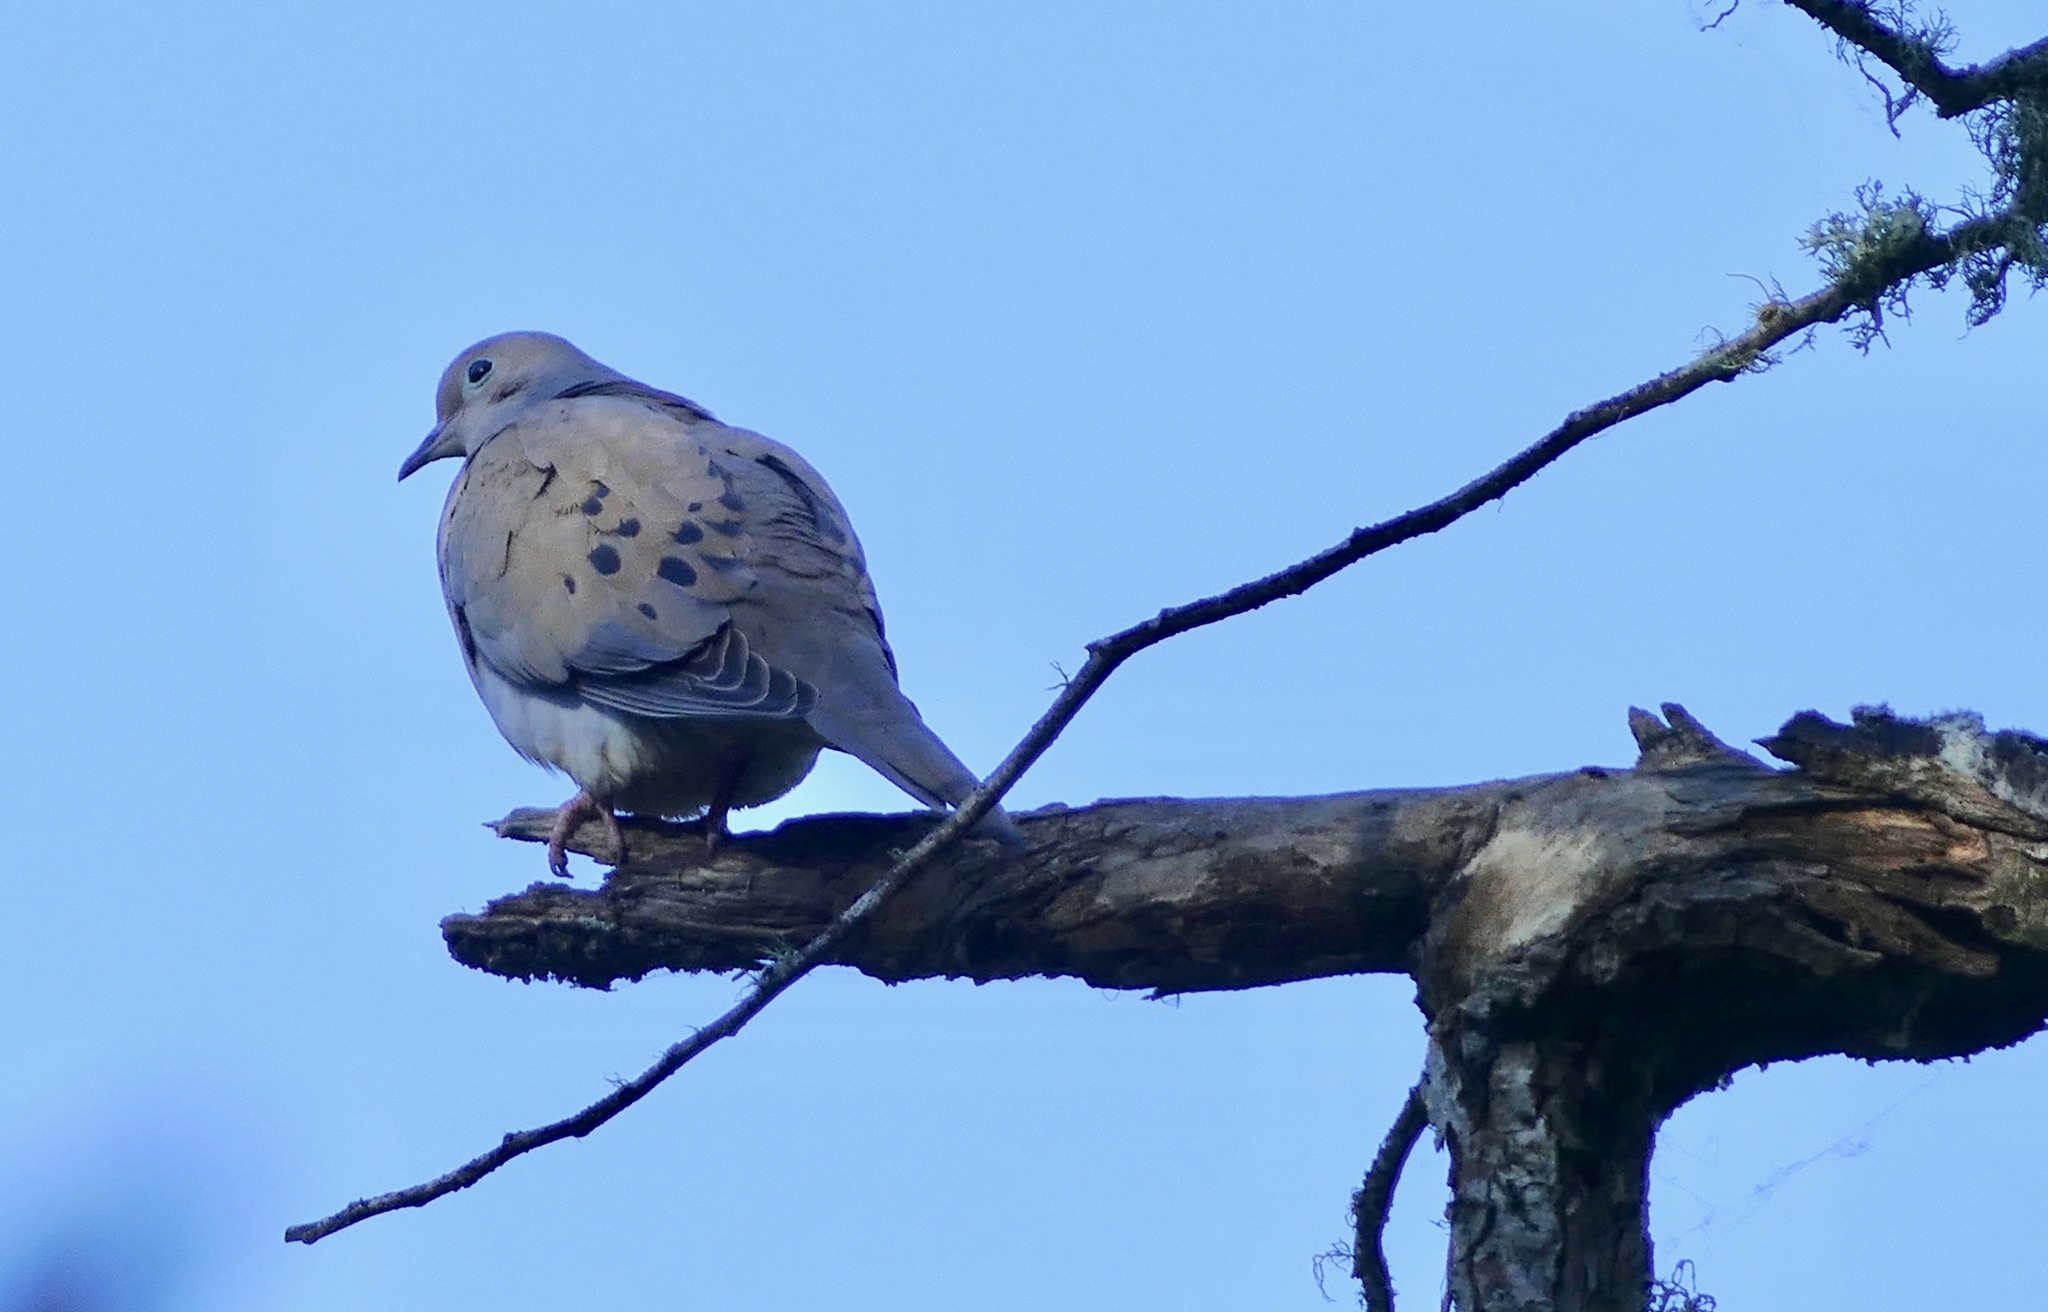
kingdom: Animalia
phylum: Chordata
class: Aves
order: Columbiformes
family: Columbidae
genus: Zenaida
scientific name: Zenaida macroura
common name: Mourning dove
